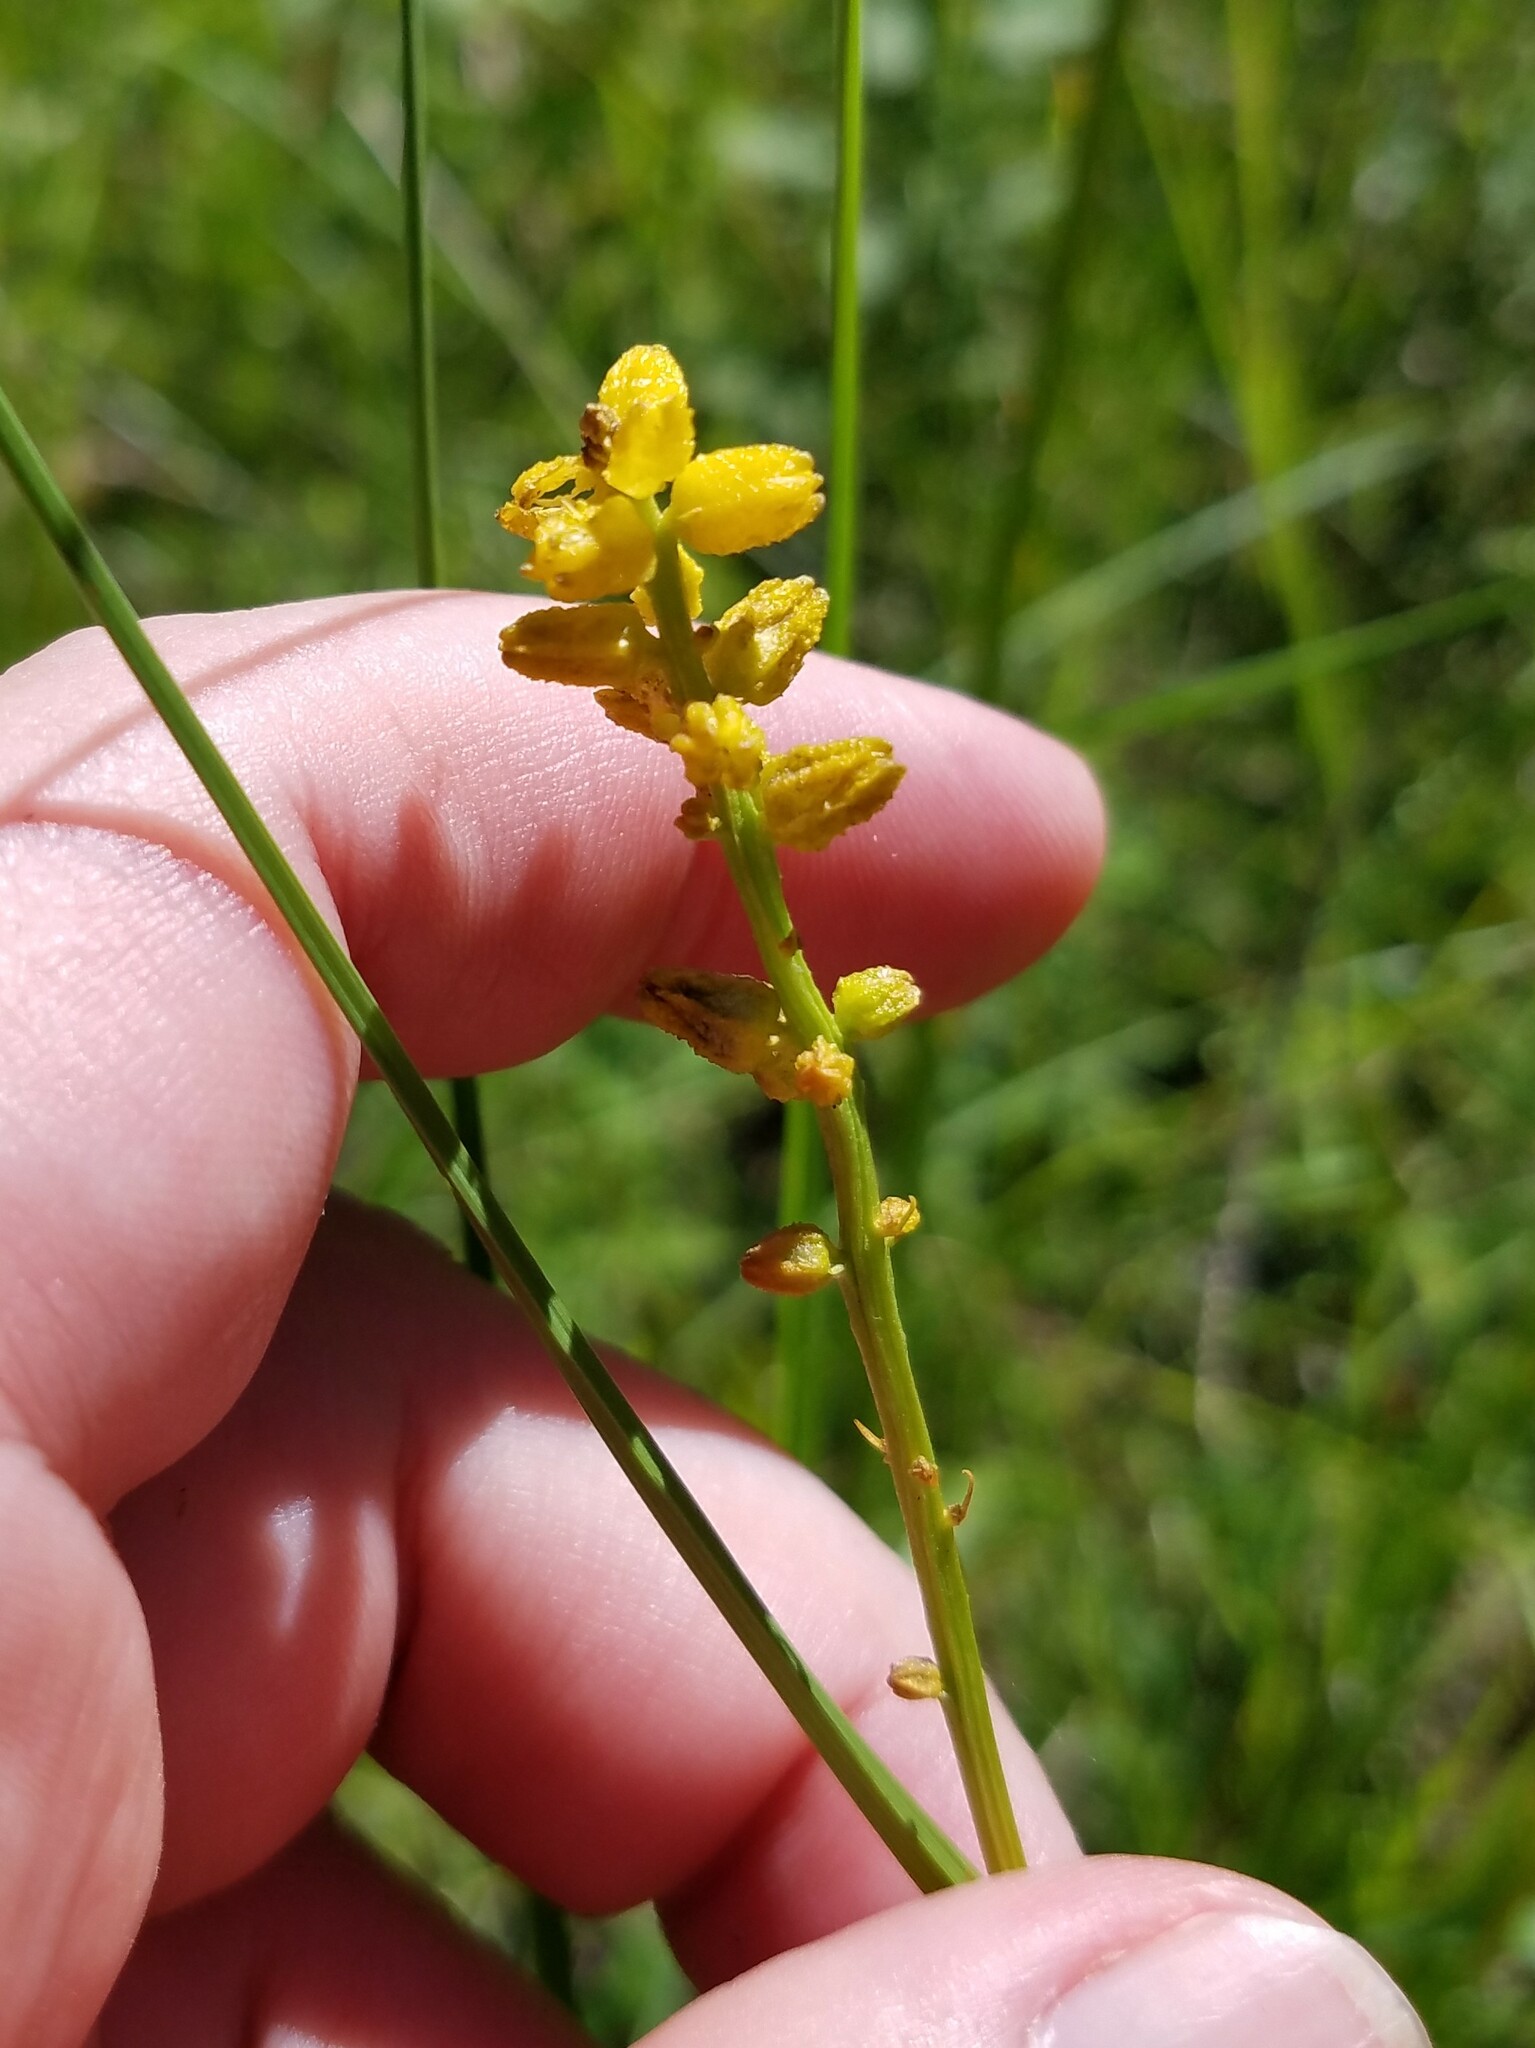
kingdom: Plantae
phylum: Tracheophyta
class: Liliopsida
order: Dioscoreales
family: Nartheciaceae
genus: Aletris
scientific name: Aletris aurea
